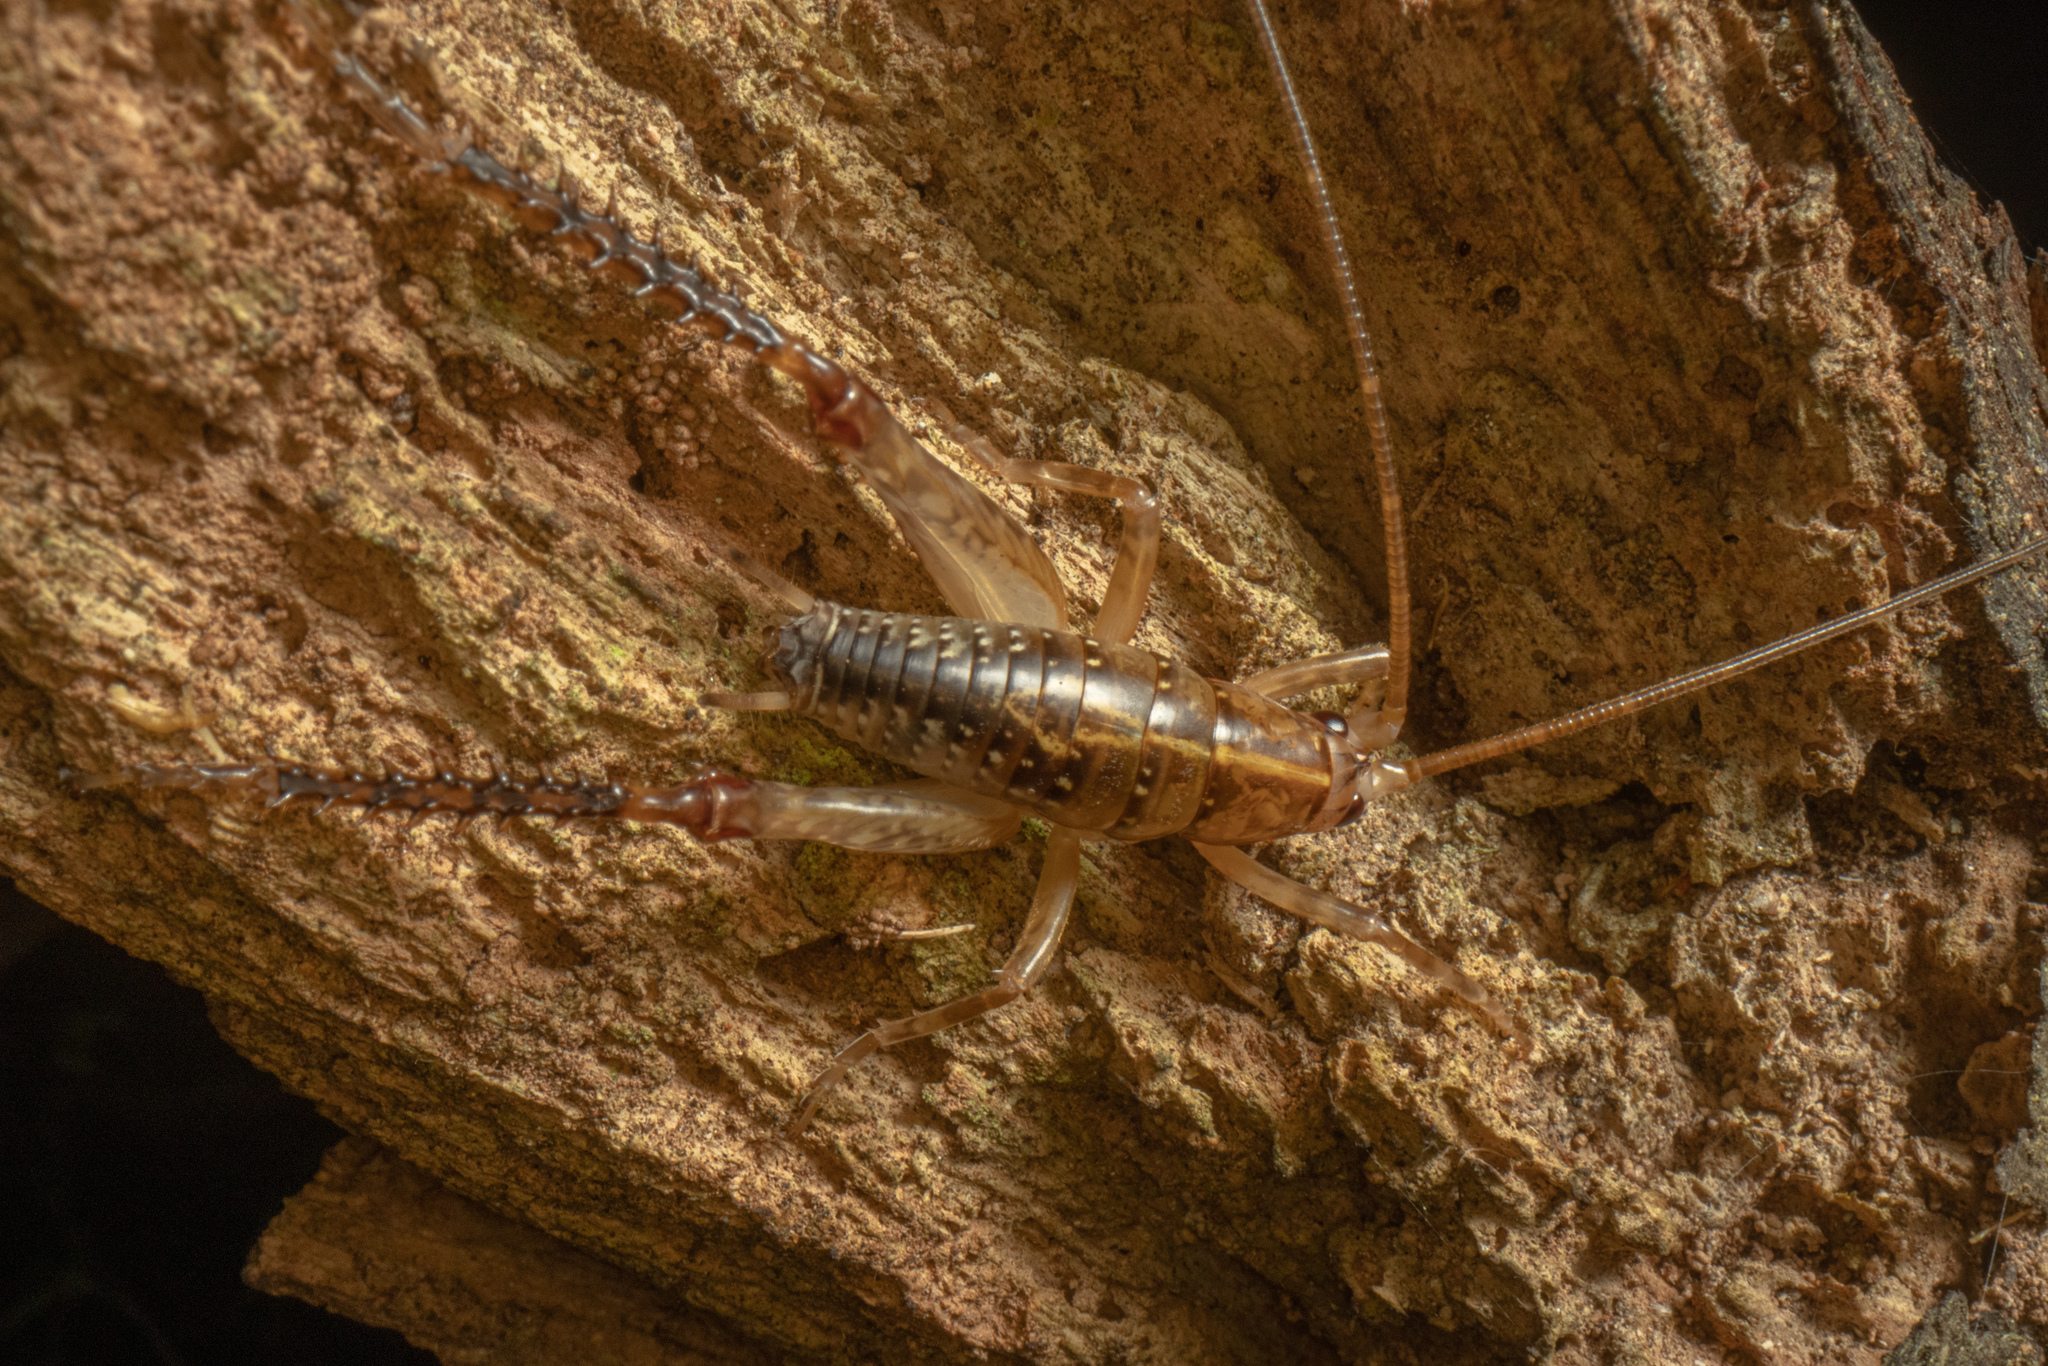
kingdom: Animalia
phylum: Arthropoda
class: Insecta
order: Orthoptera
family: Rhaphidophoridae
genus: Talitropsis
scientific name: Talitropsis sedilloti
